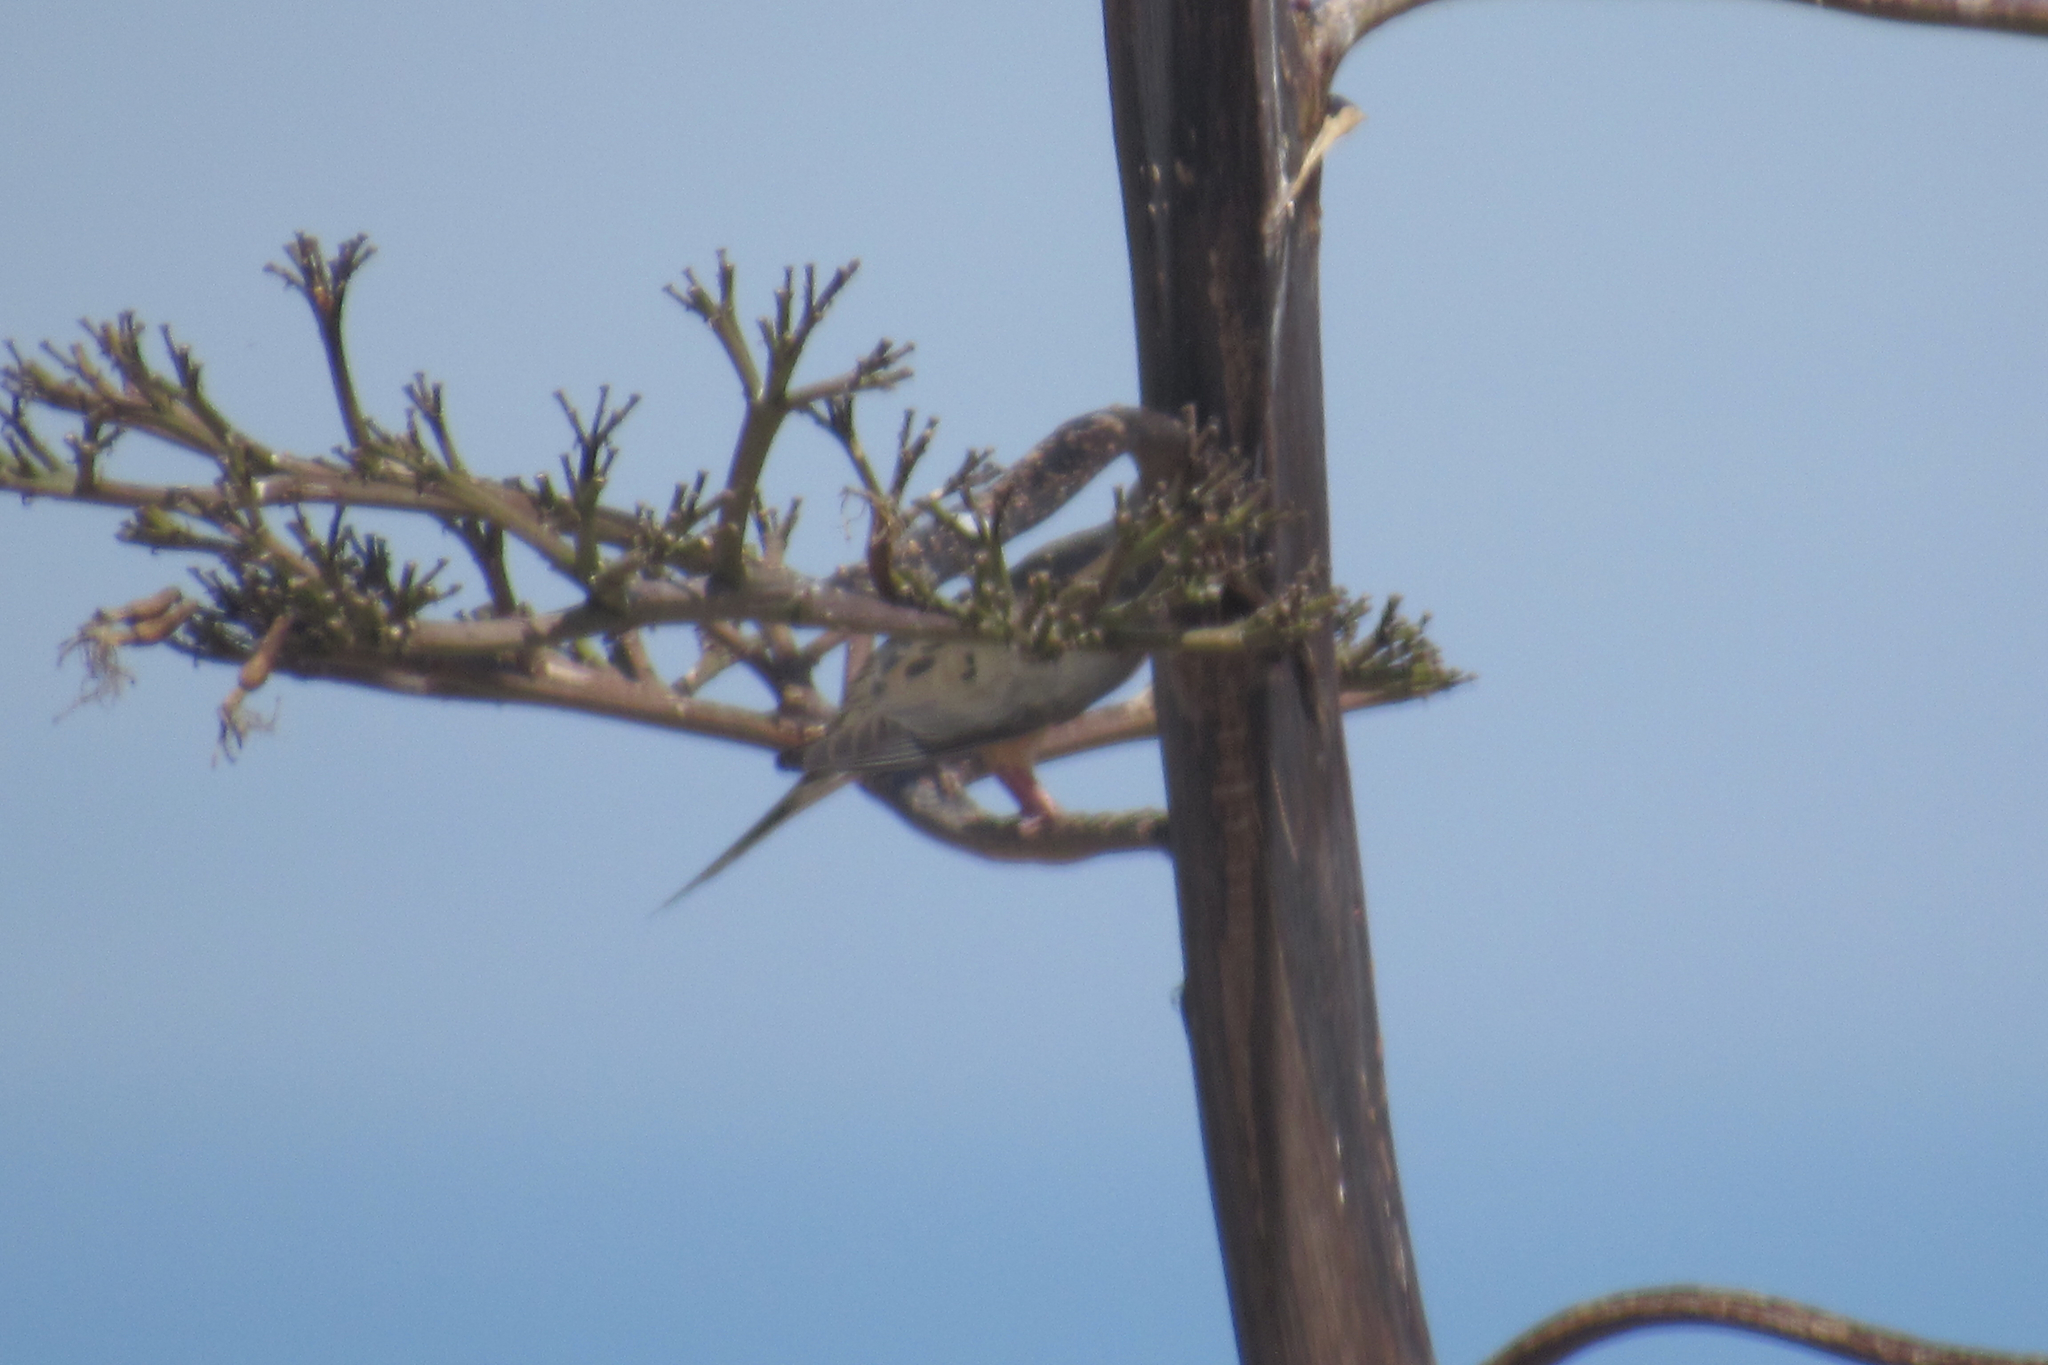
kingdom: Animalia
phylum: Chordata
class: Aves
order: Columbiformes
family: Columbidae
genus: Zenaida
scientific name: Zenaida macroura
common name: Mourning dove
